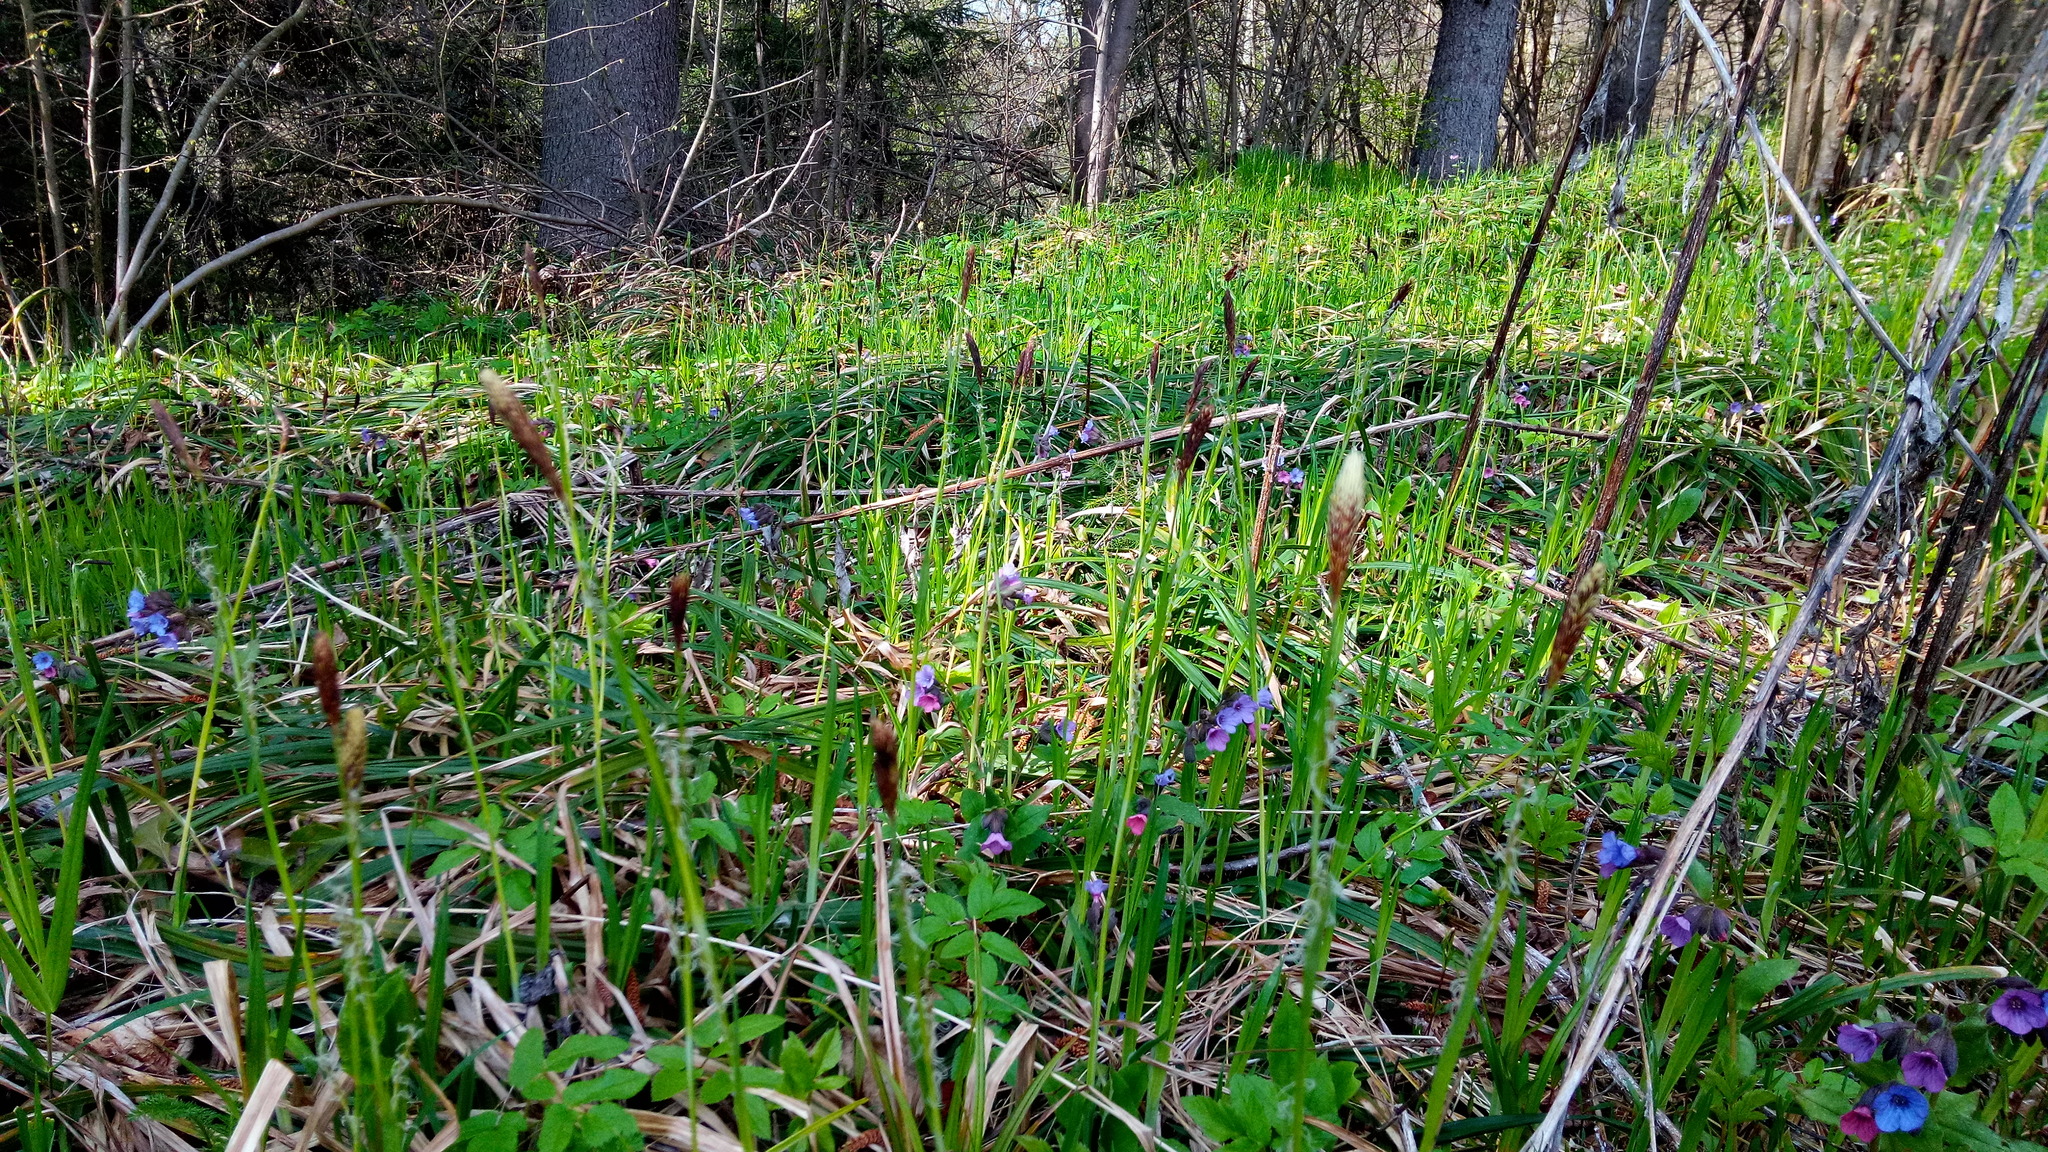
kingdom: Plantae
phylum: Tracheophyta
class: Liliopsida
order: Poales
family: Cyperaceae
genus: Carex
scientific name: Carex pilosa
